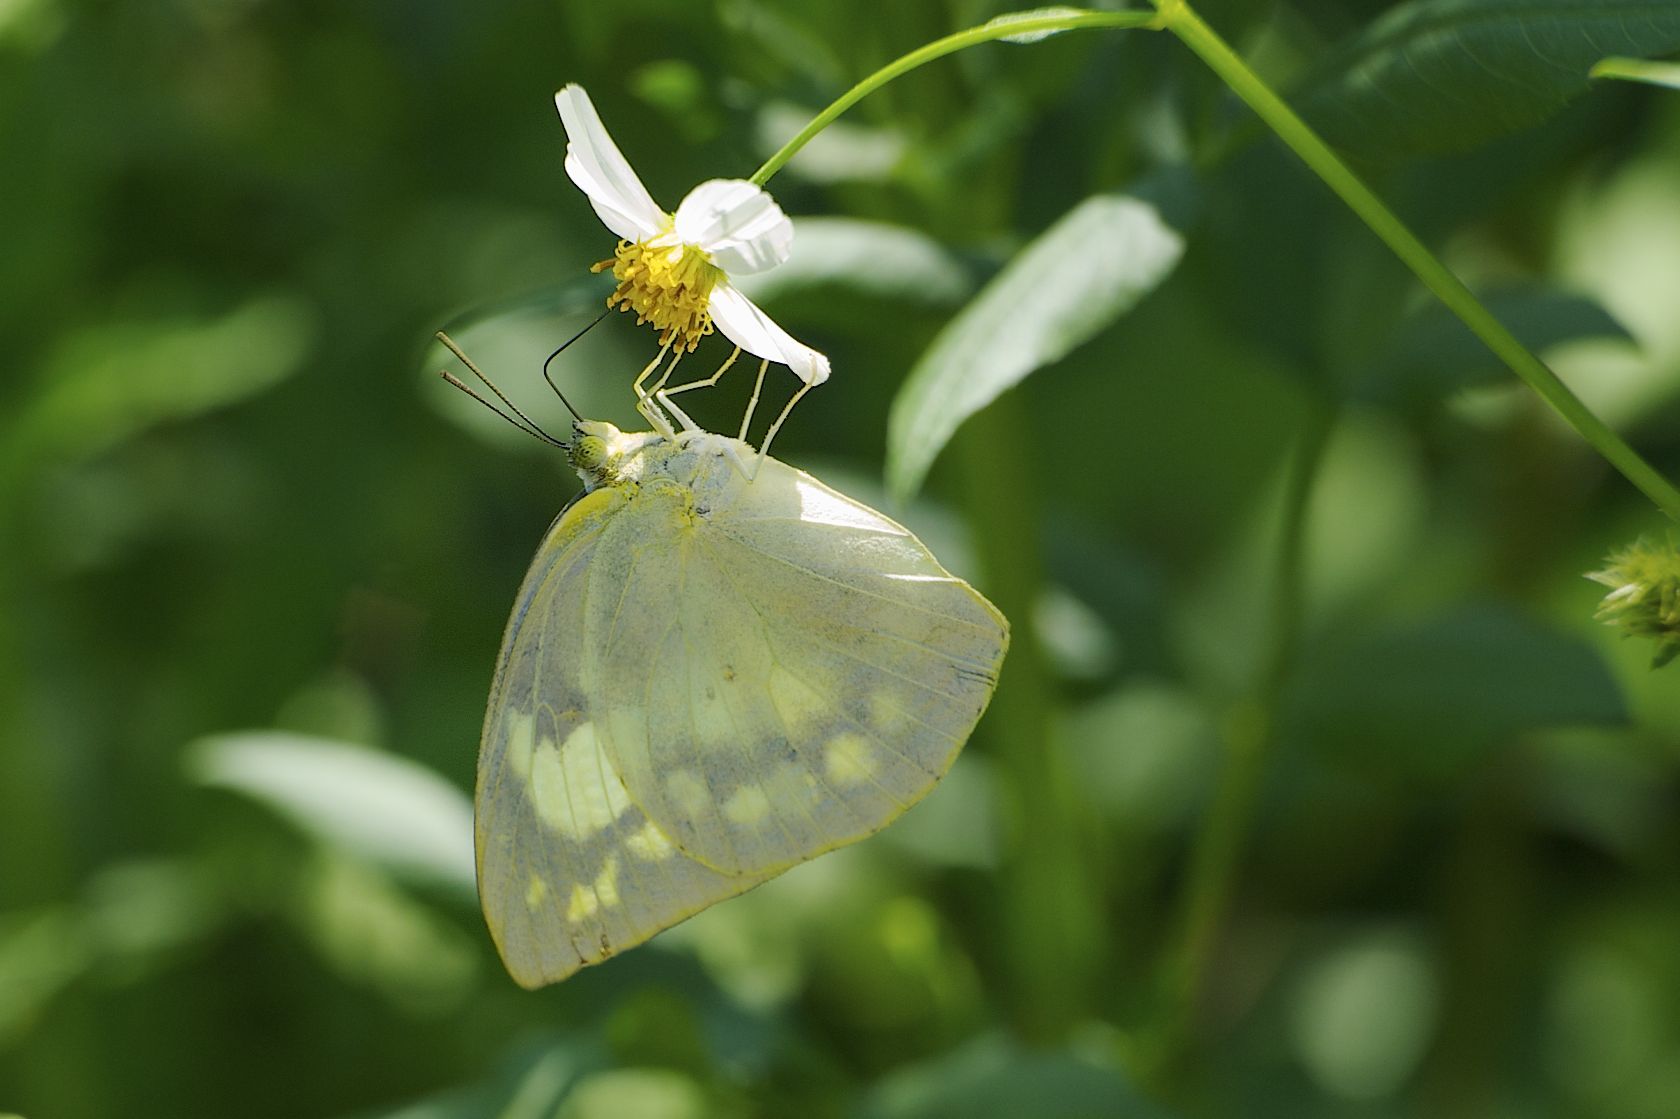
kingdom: Animalia
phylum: Arthropoda
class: Insecta
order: Lepidoptera
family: Pieridae
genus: Catopsilia
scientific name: Catopsilia pomona
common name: Common emigrant
